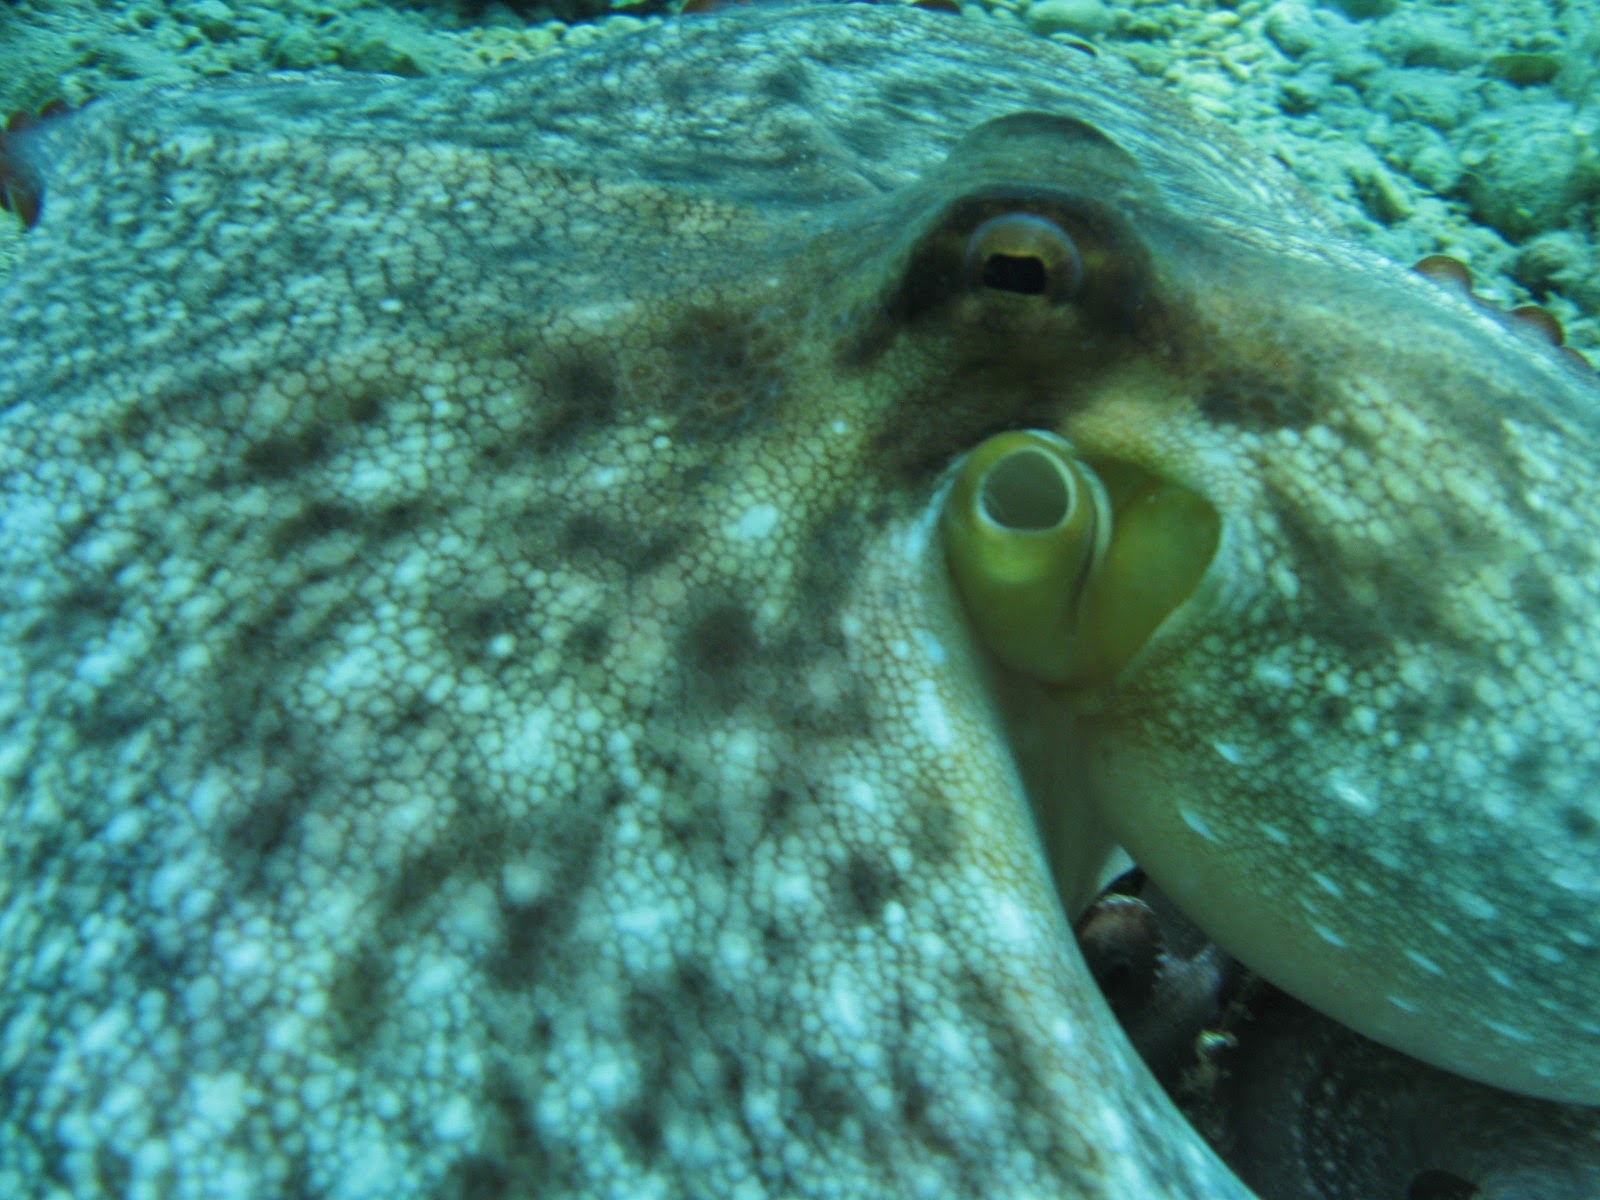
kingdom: Animalia
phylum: Mollusca
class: Cephalopoda
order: Octopoda
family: Octopodidae
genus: Octopus
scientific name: Octopus vulgaris
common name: Common octopus
